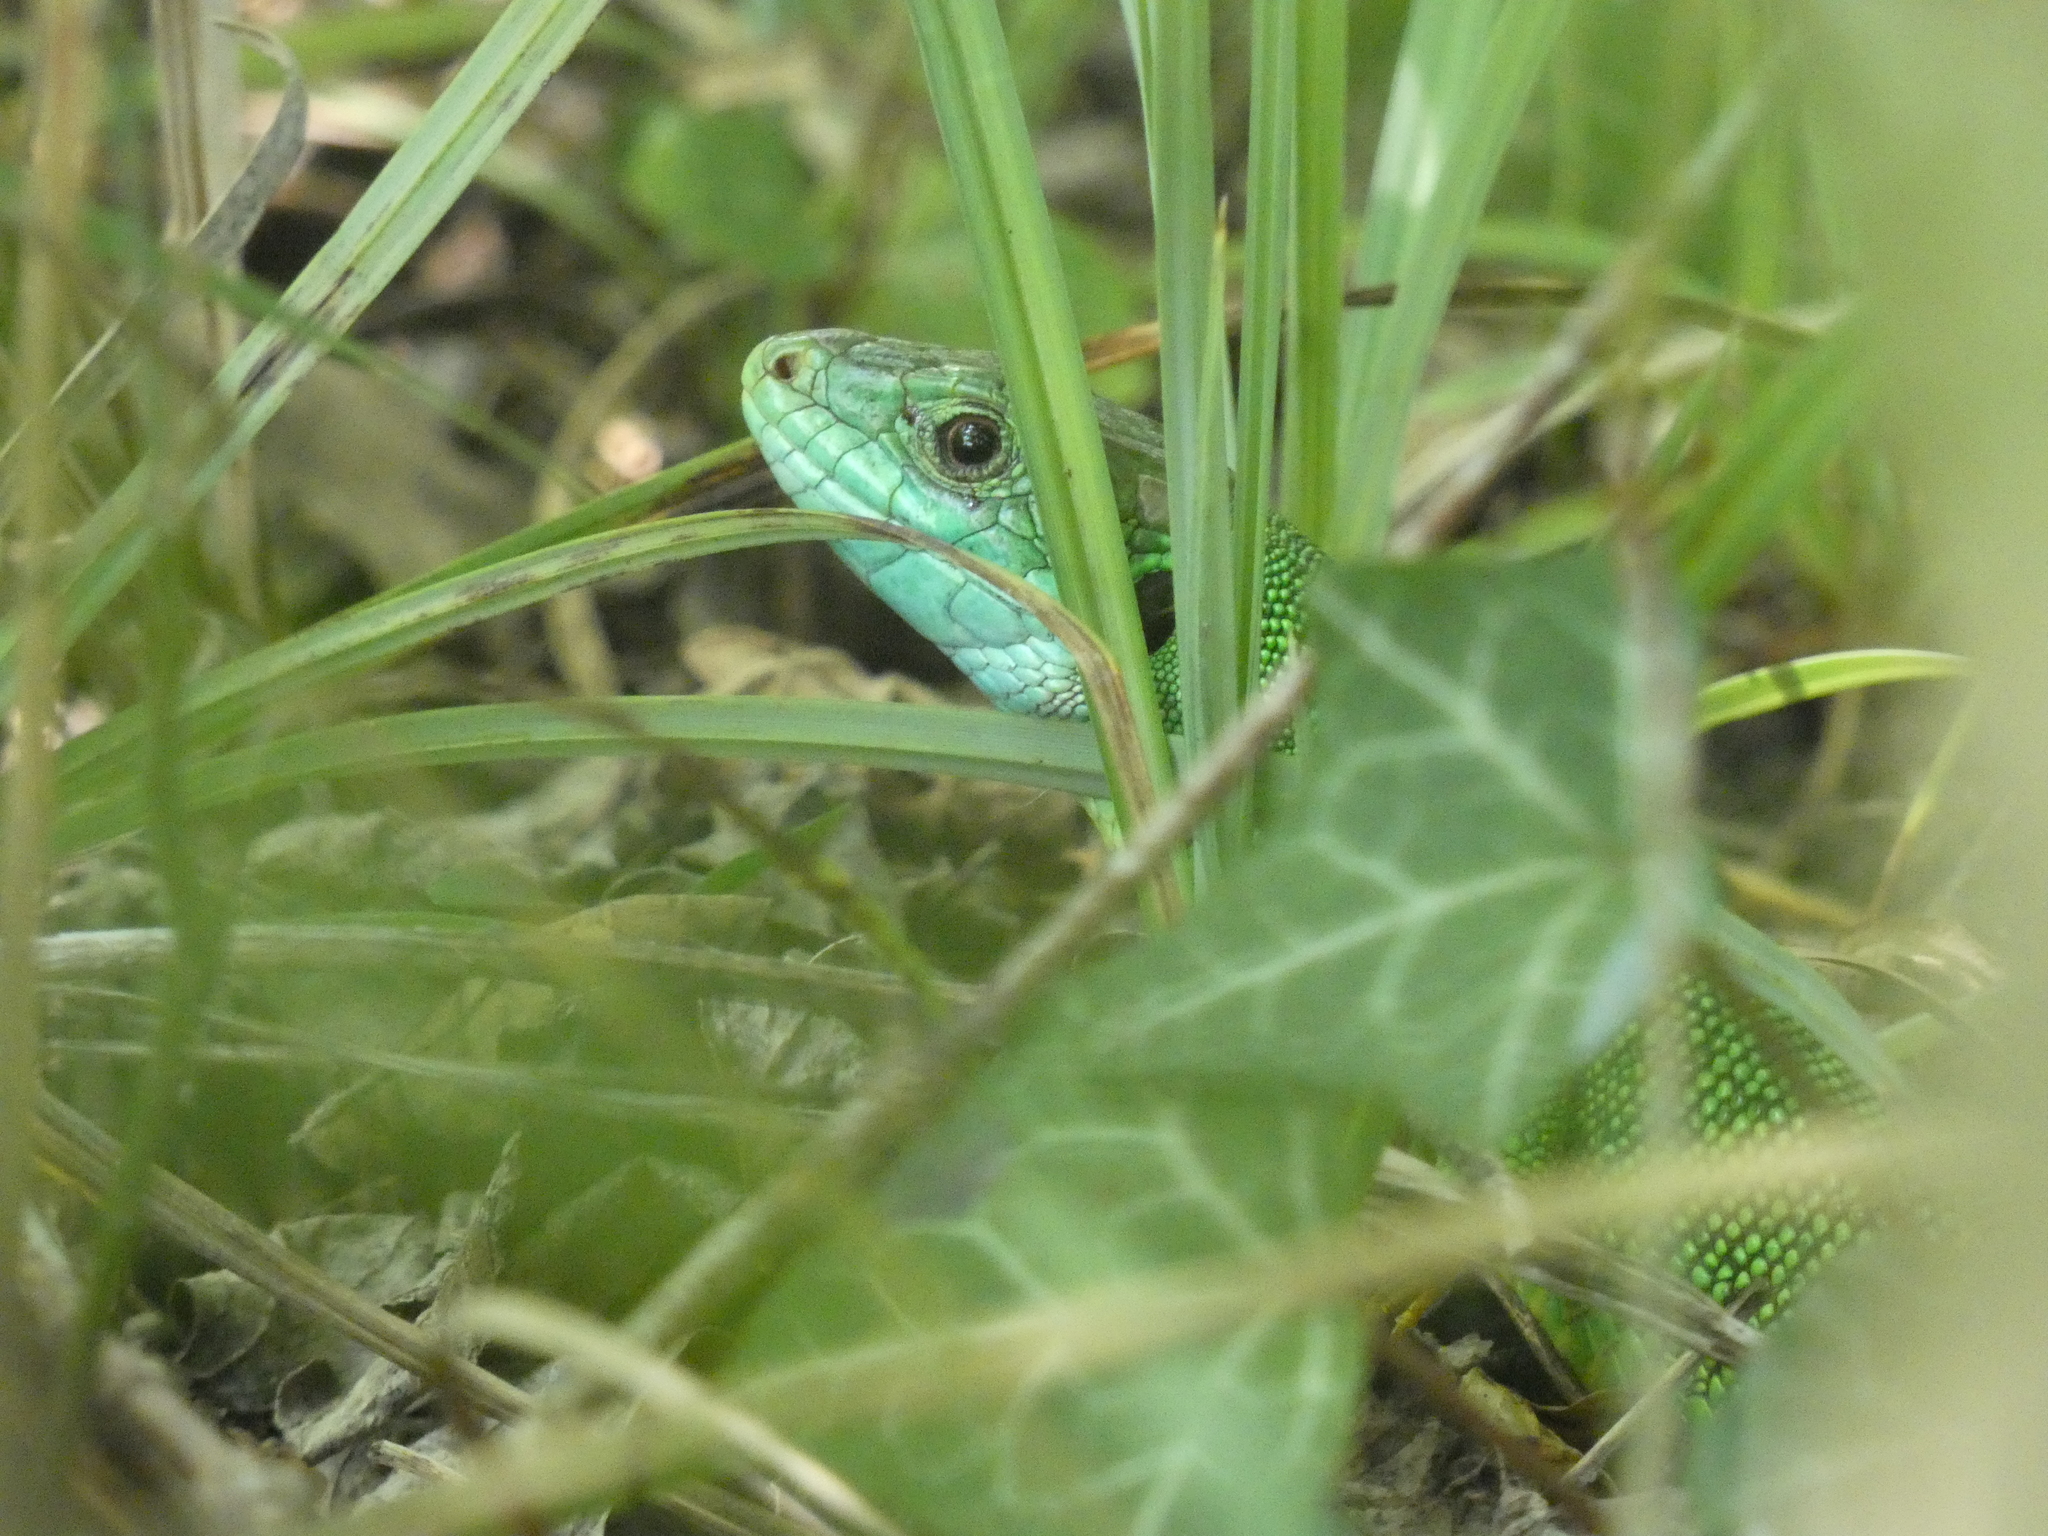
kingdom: Animalia
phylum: Chordata
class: Squamata
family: Lacertidae
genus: Lacerta
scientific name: Lacerta bilineata
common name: Western green lizard
